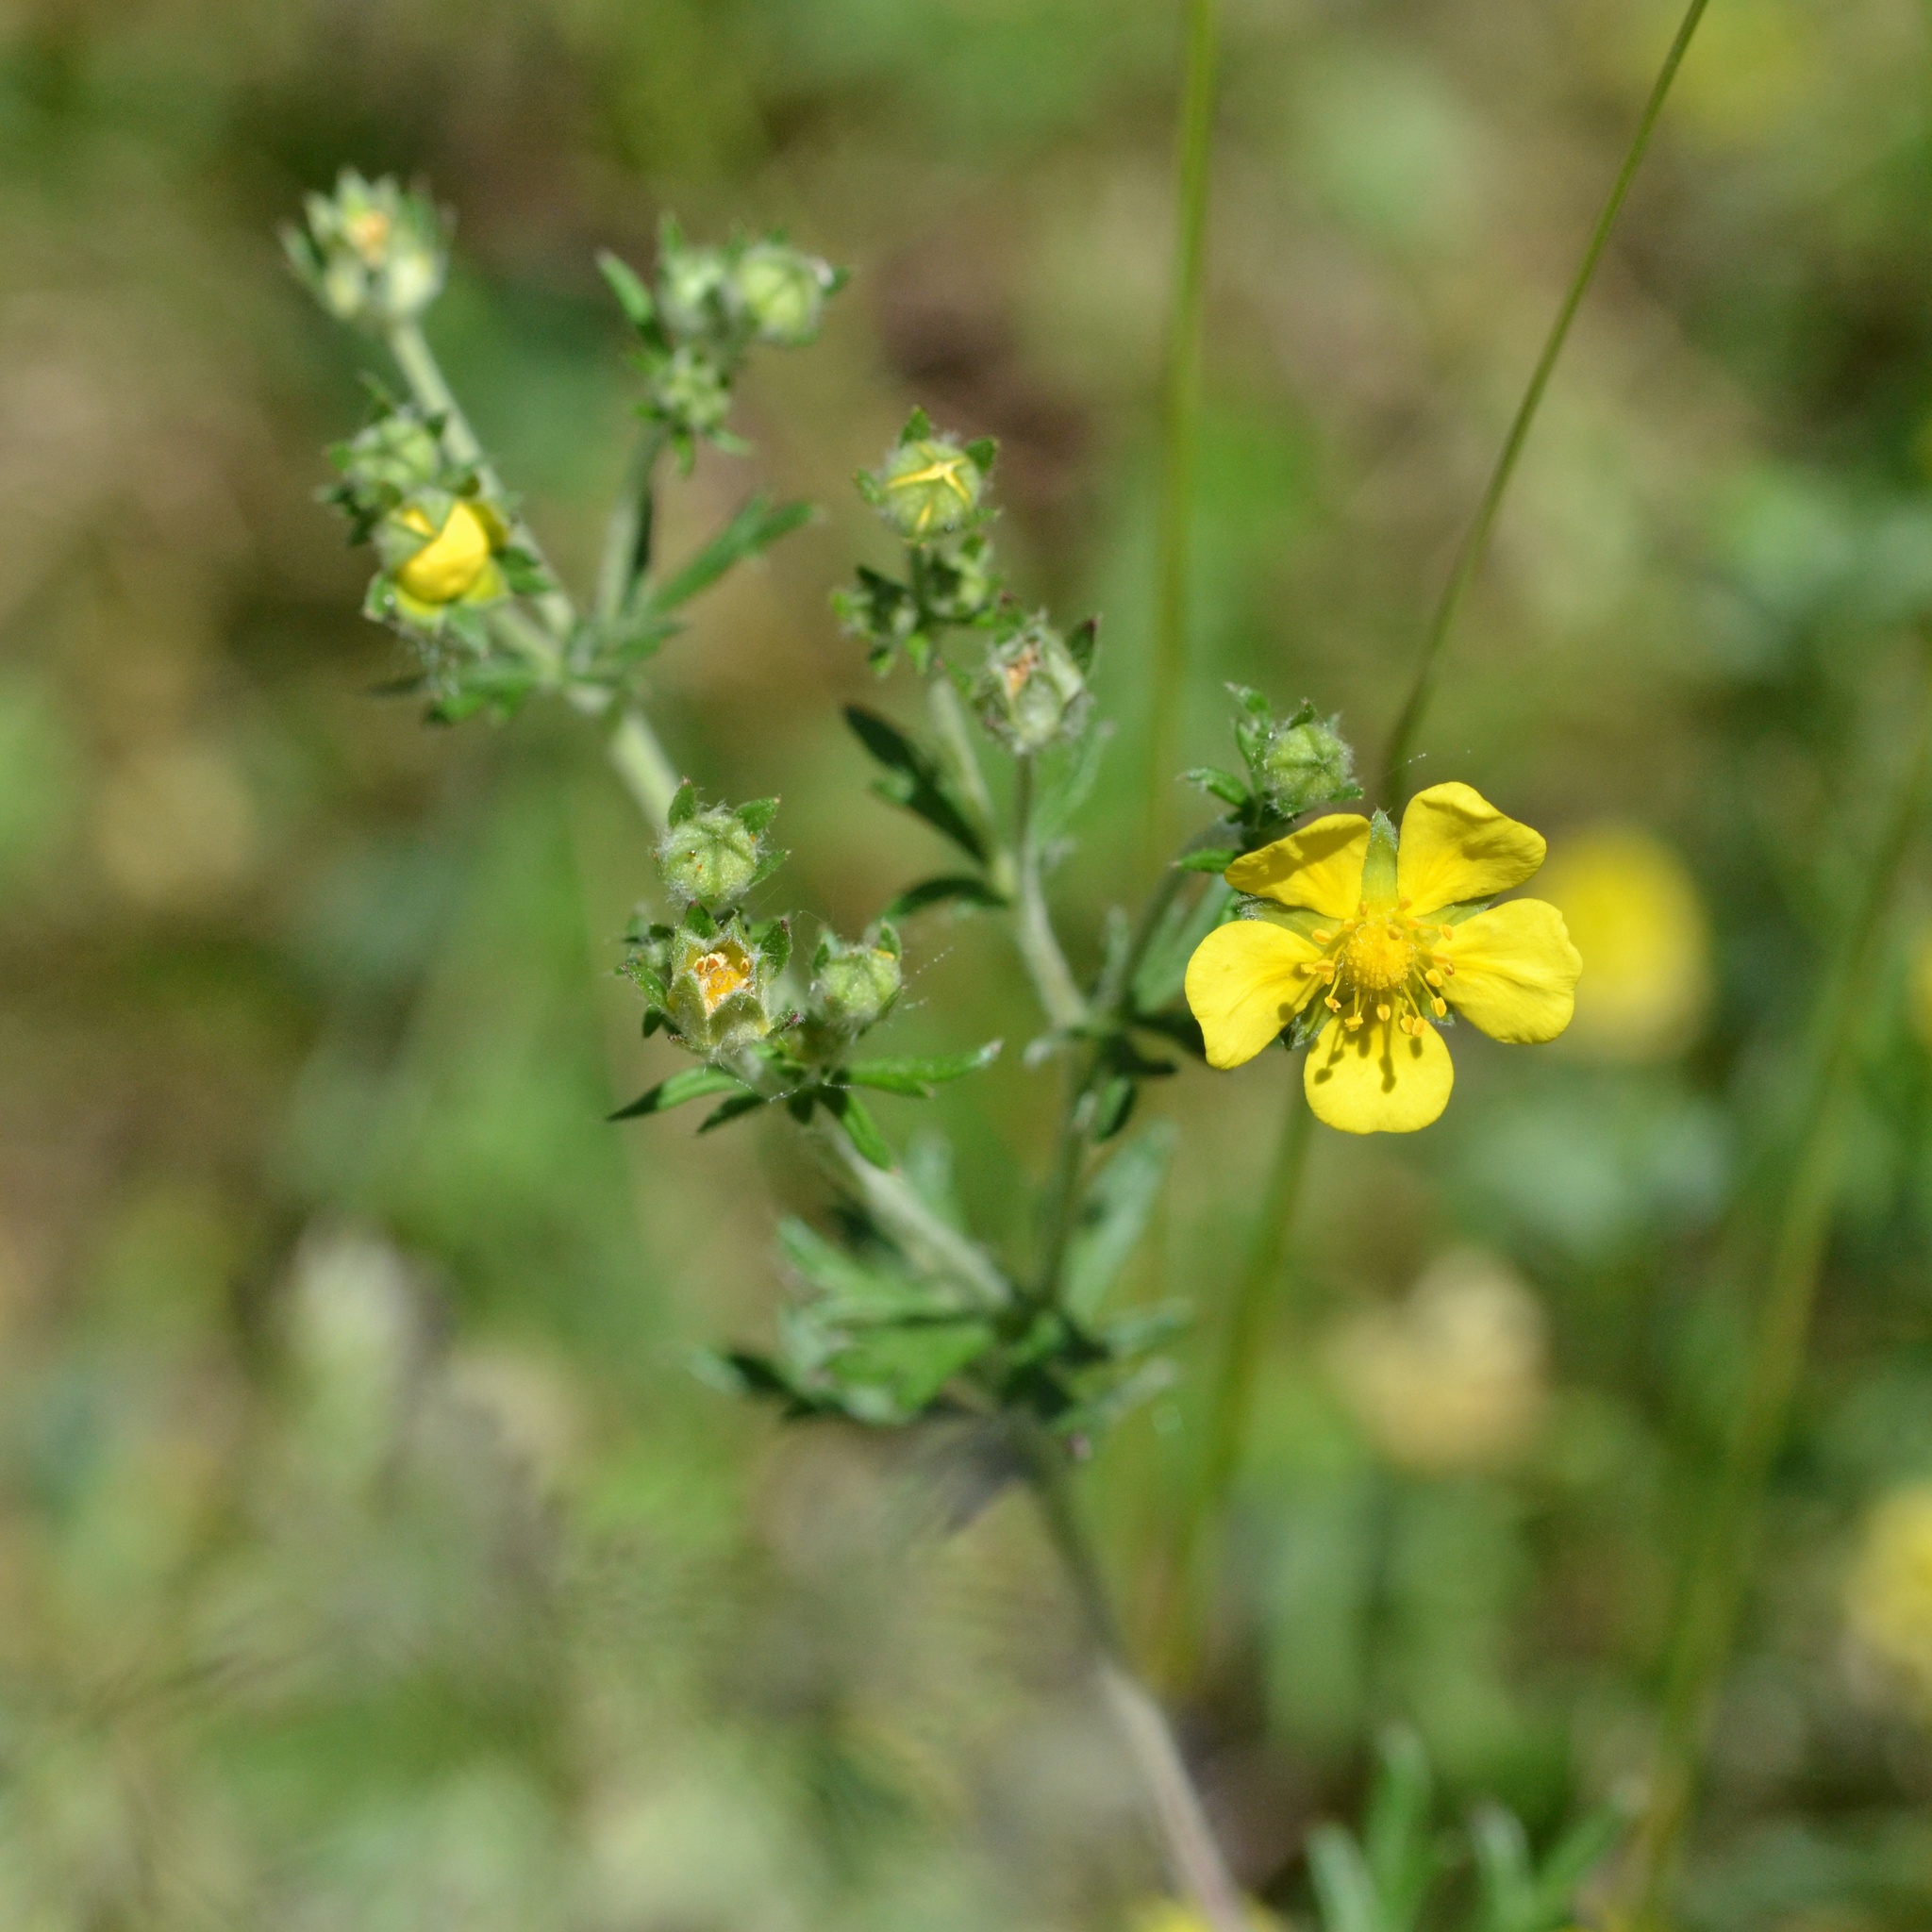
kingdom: Plantae
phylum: Tracheophyta
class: Magnoliopsida
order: Rosales
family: Rosaceae
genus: Potentilla
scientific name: Potentilla argentea
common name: Hoary cinquefoil
